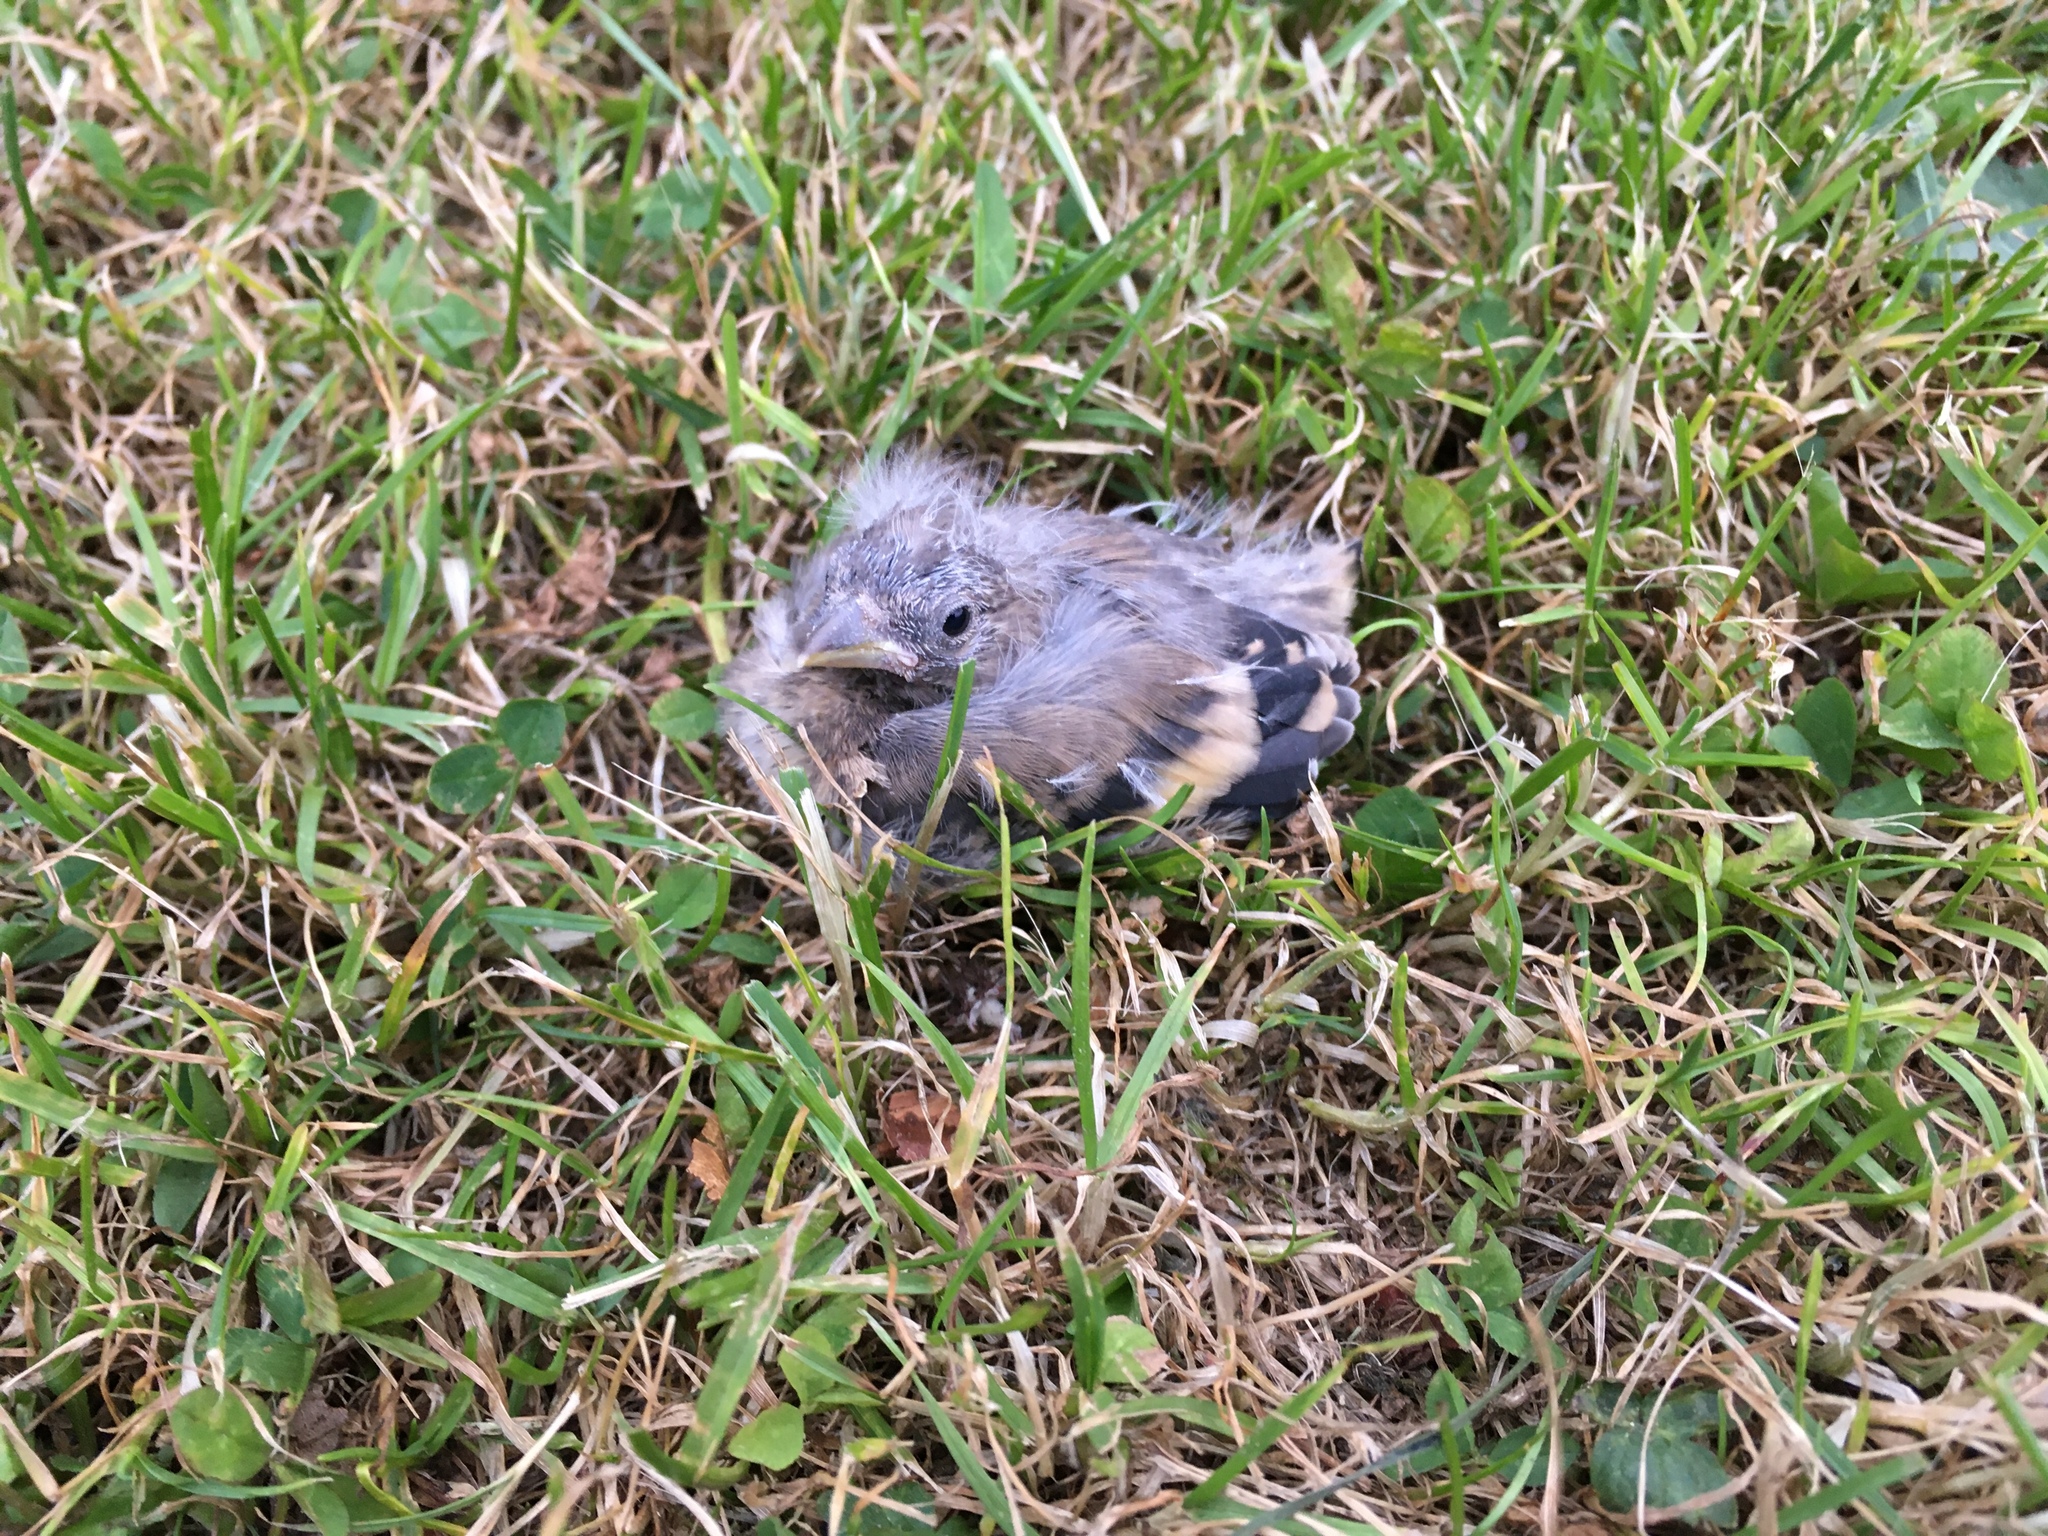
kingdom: Animalia
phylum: Chordata
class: Aves
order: Passeriformes
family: Fringillidae
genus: Carduelis
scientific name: Carduelis carduelis
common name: European goldfinch
